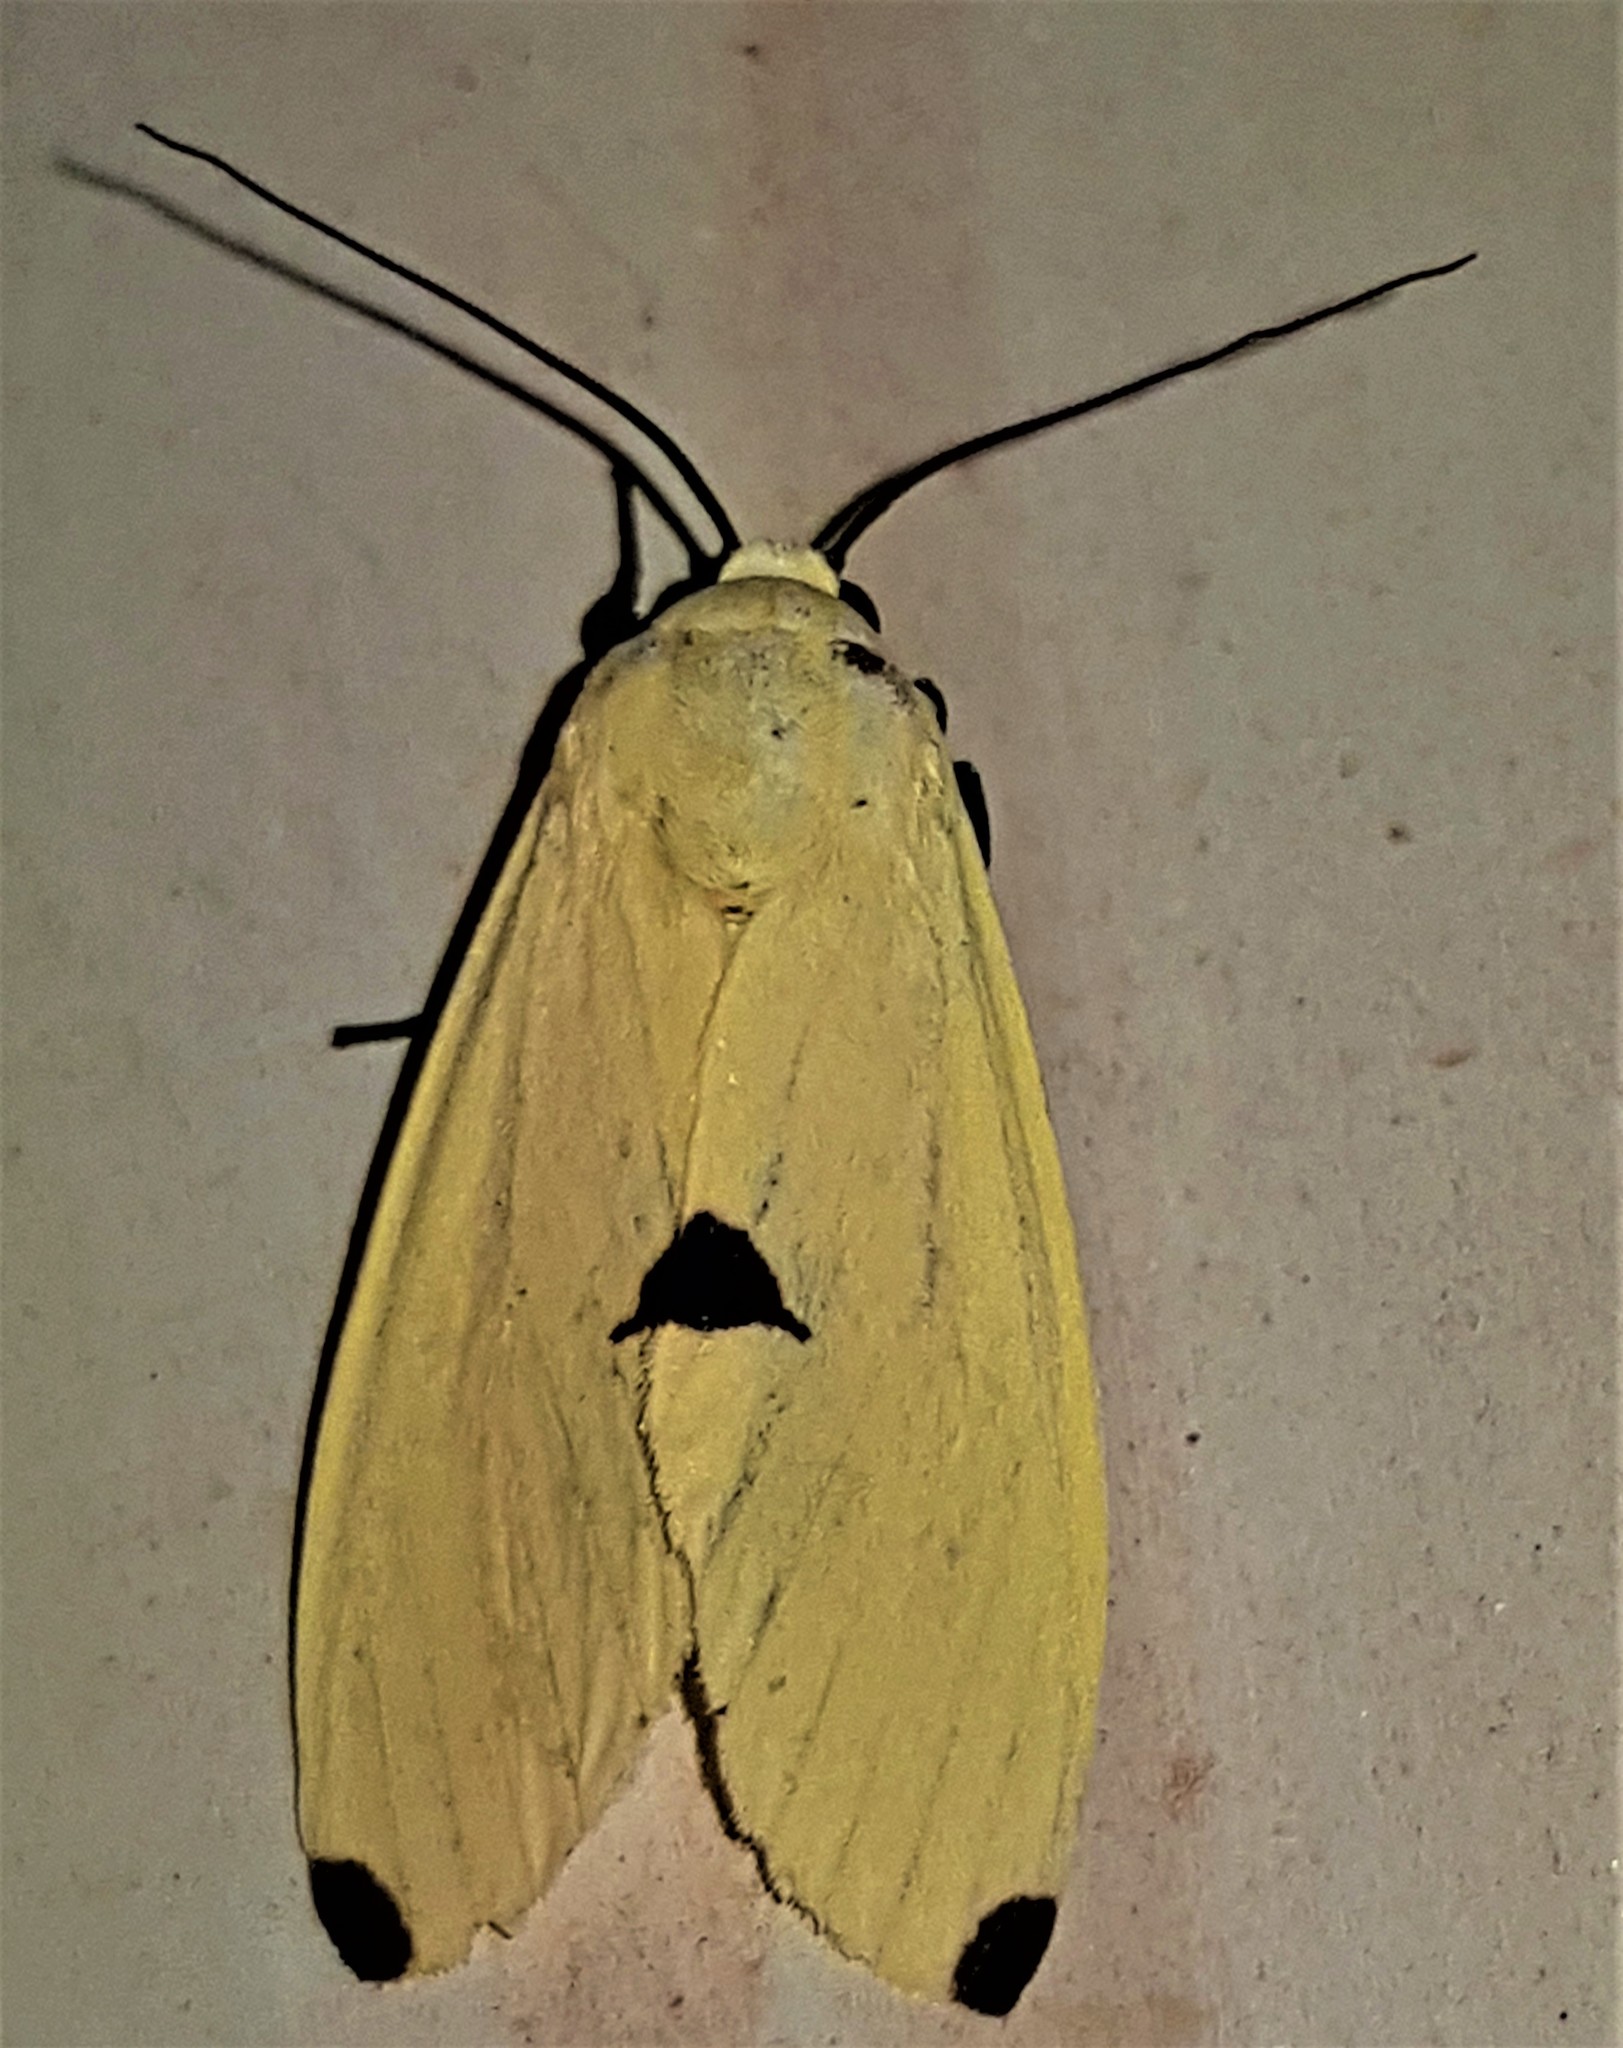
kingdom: Animalia
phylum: Arthropoda
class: Insecta
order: Lepidoptera
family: Erebidae
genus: Viviennea
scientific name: Viviennea superba
